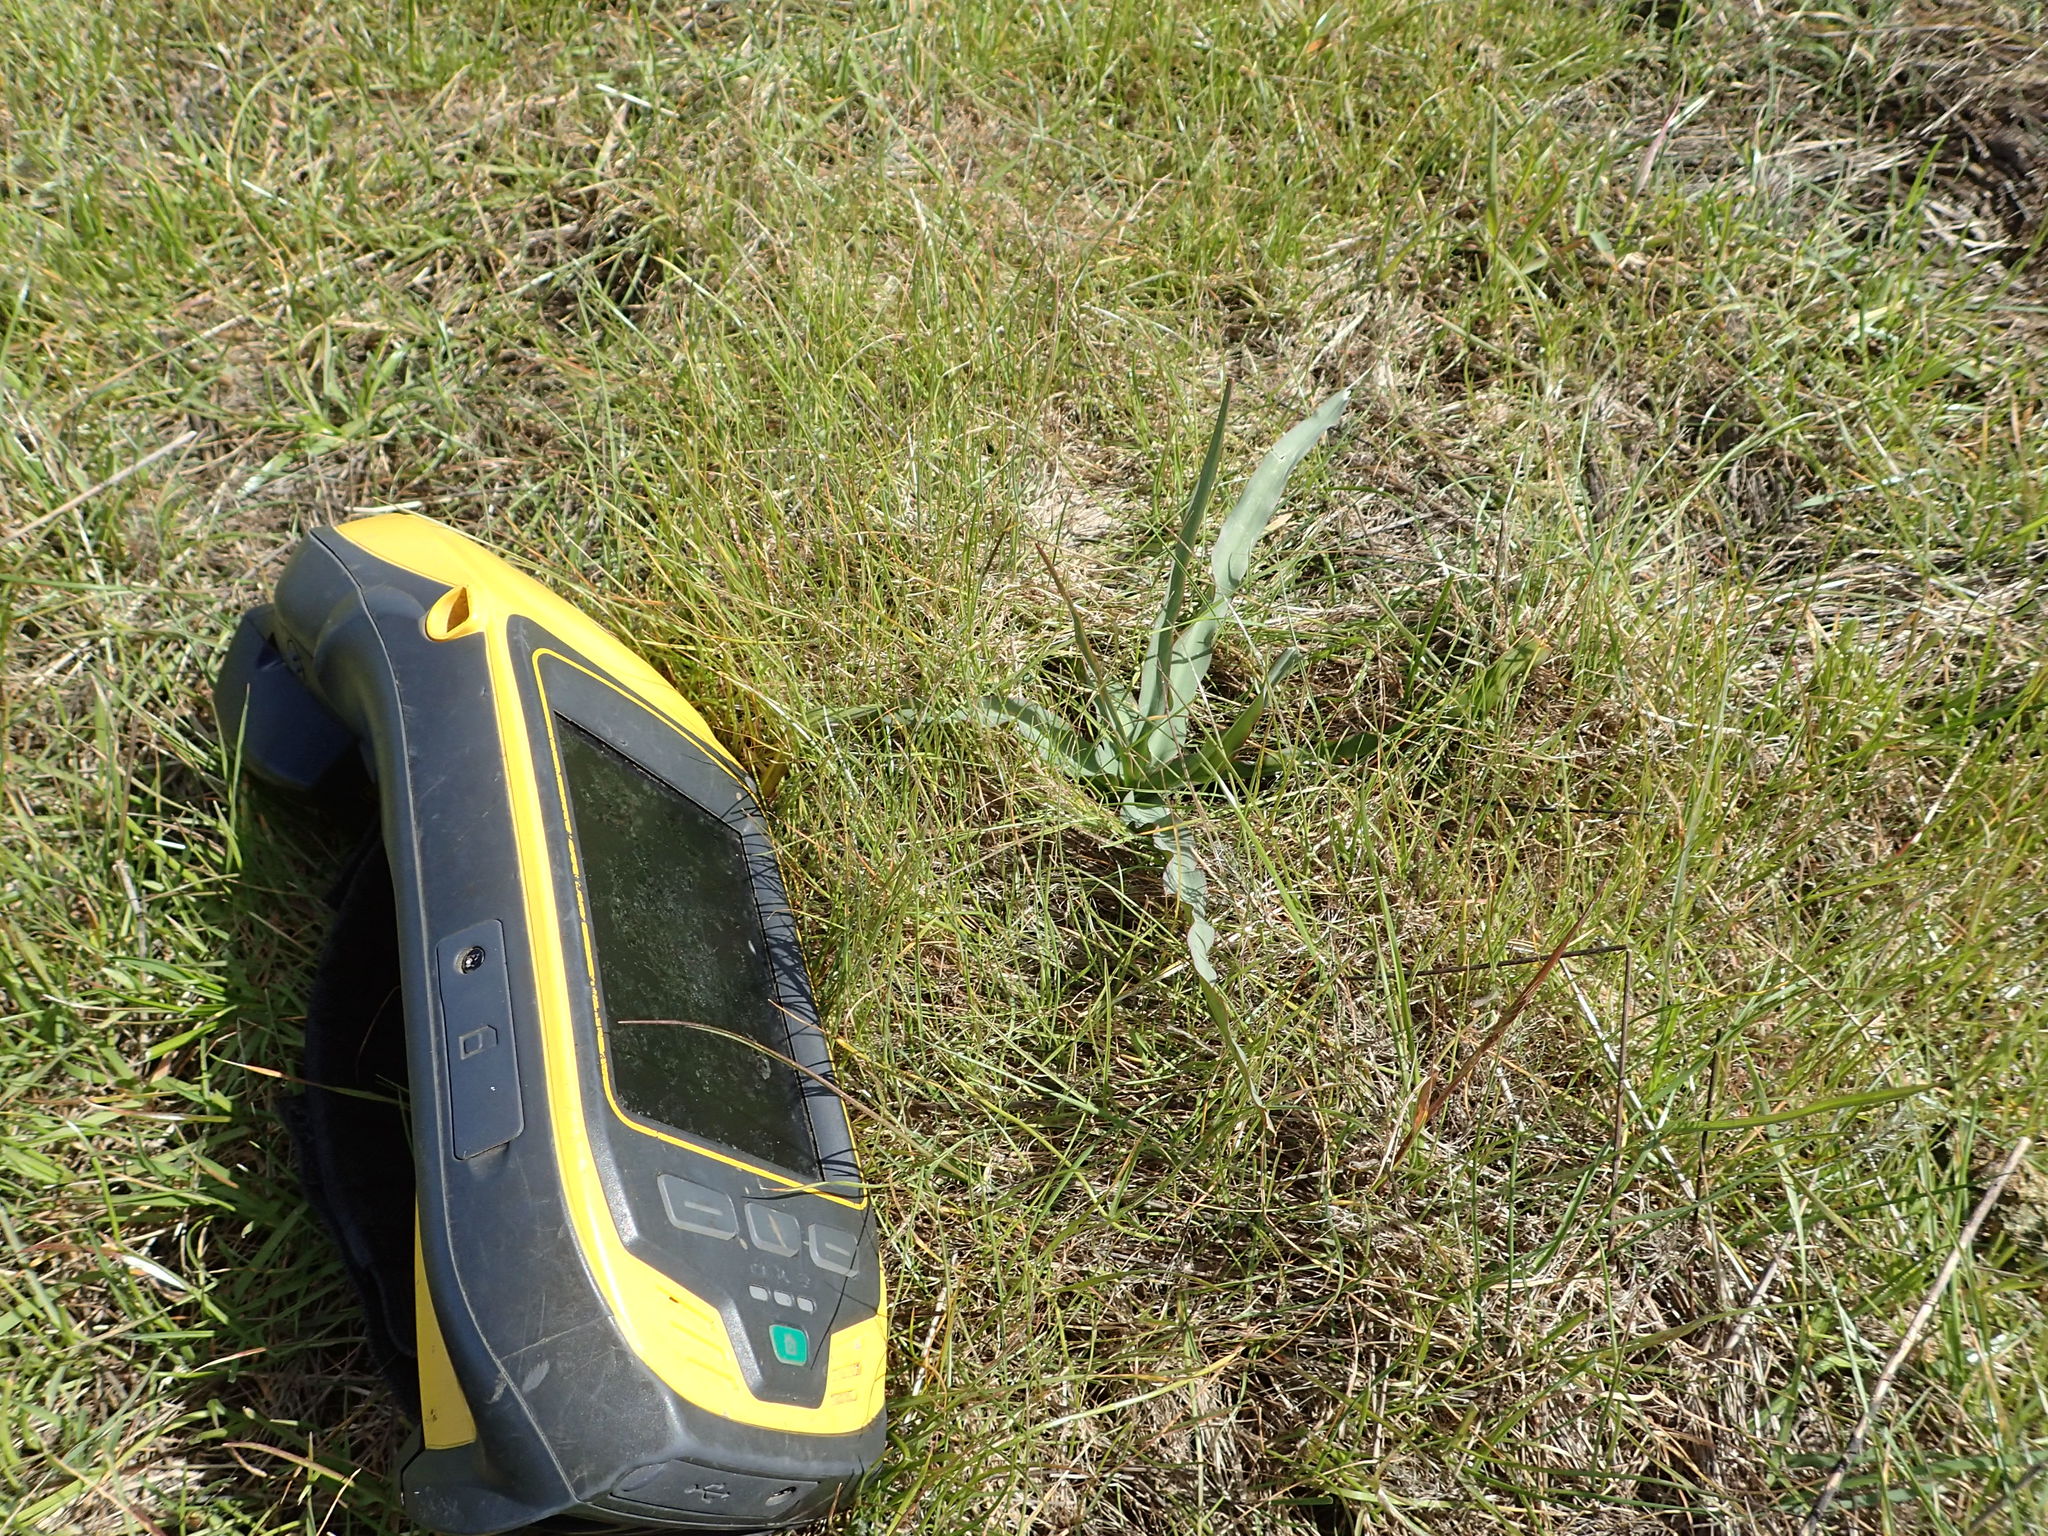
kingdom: Plantae
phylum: Tracheophyta
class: Liliopsida
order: Asparagales
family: Asparagaceae
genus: Chlorogalum
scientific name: Chlorogalum pomeridianum
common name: Amole
